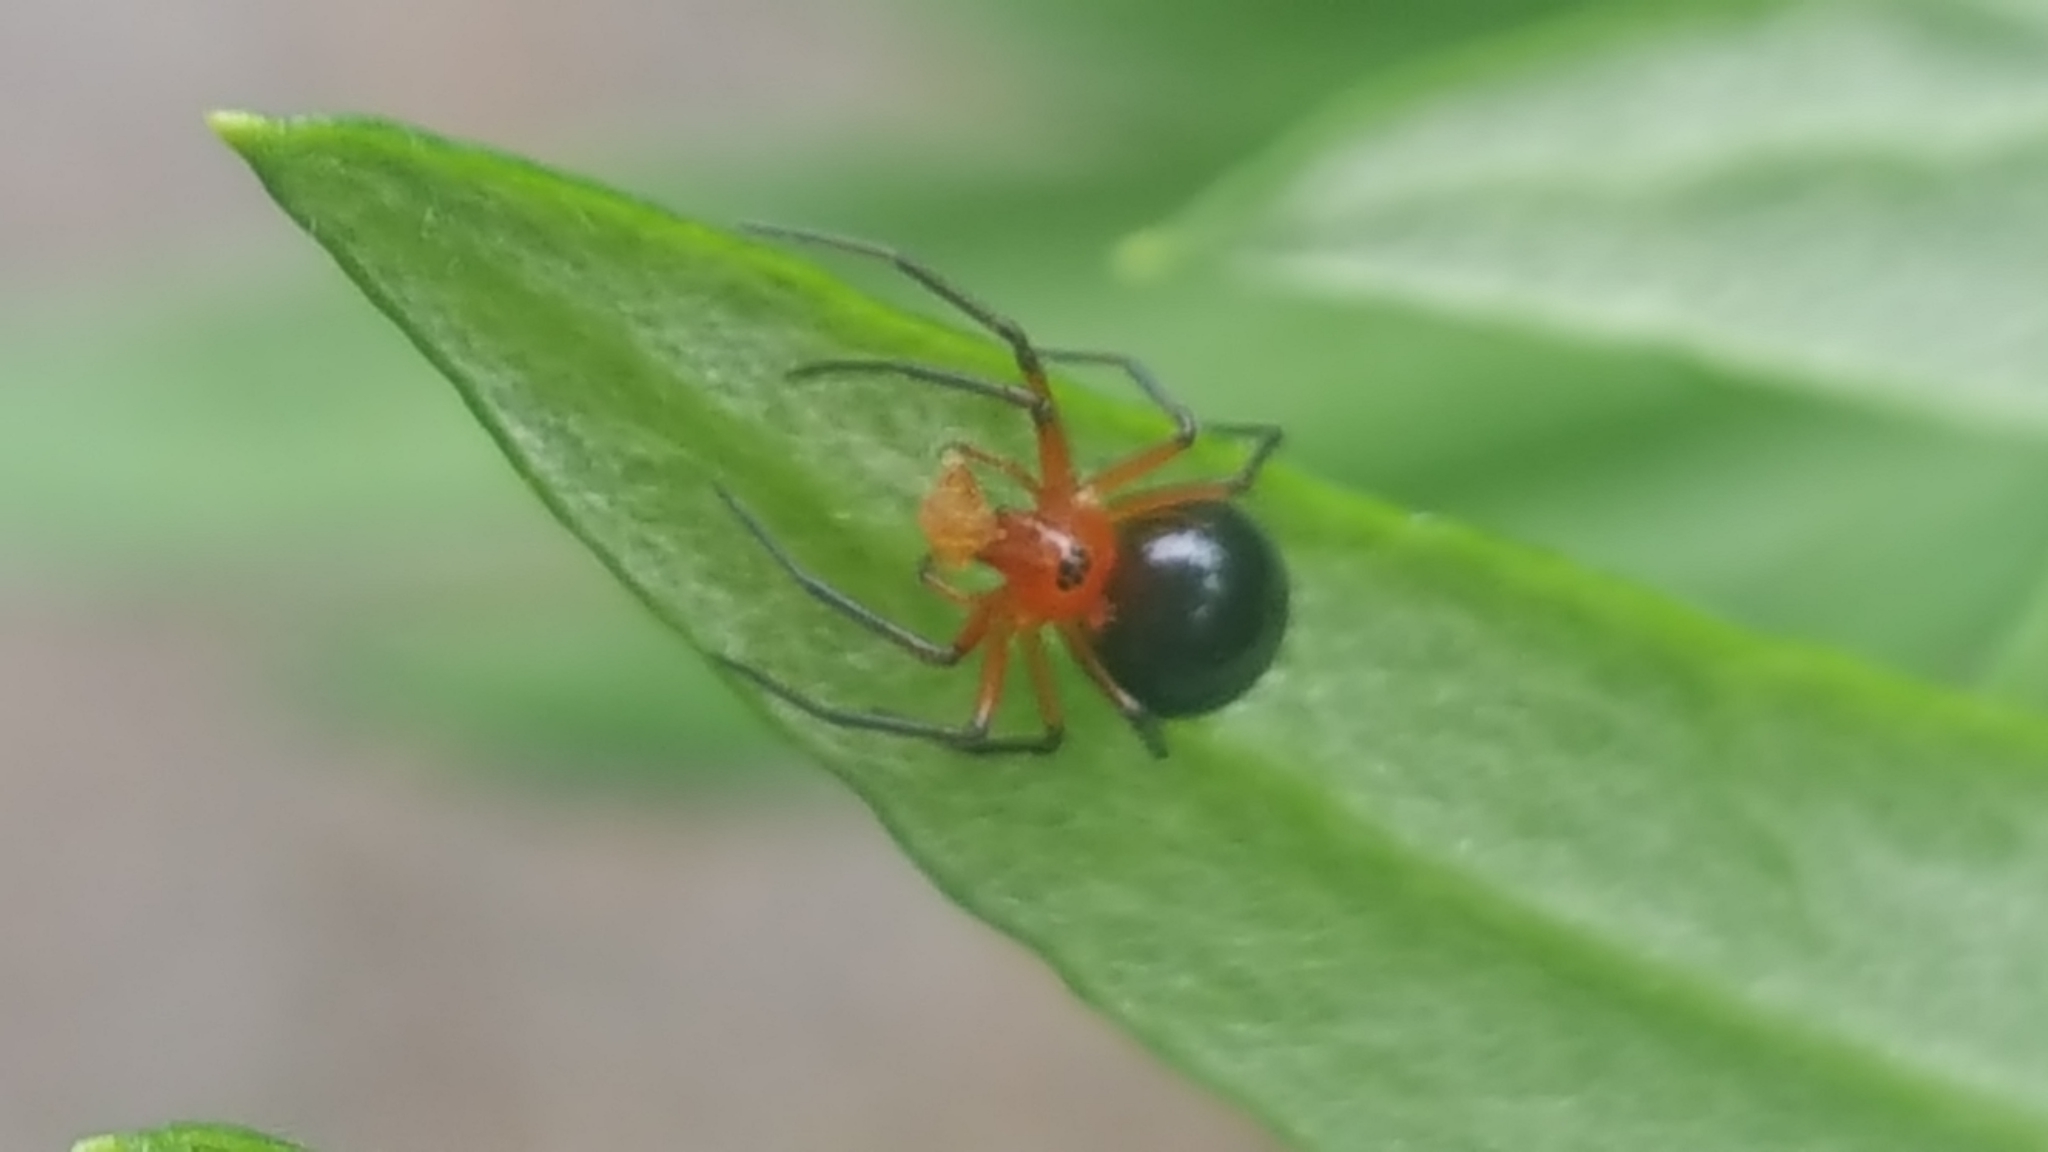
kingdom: Animalia
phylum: Arthropoda
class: Arachnida
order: Araneae
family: Linyphiidae
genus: Hypselistes
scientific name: Hypselistes florens
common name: Peatland sheetweb weaver
